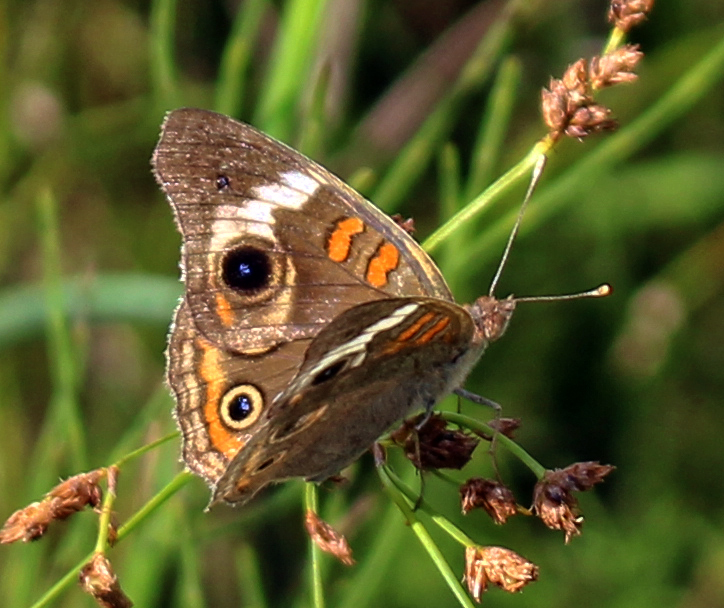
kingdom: Animalia
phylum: Arthropoda
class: Insecta
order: Lepidoptera
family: Nymphalidae
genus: Junonia
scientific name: Junonia coenia
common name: Common buckeye
